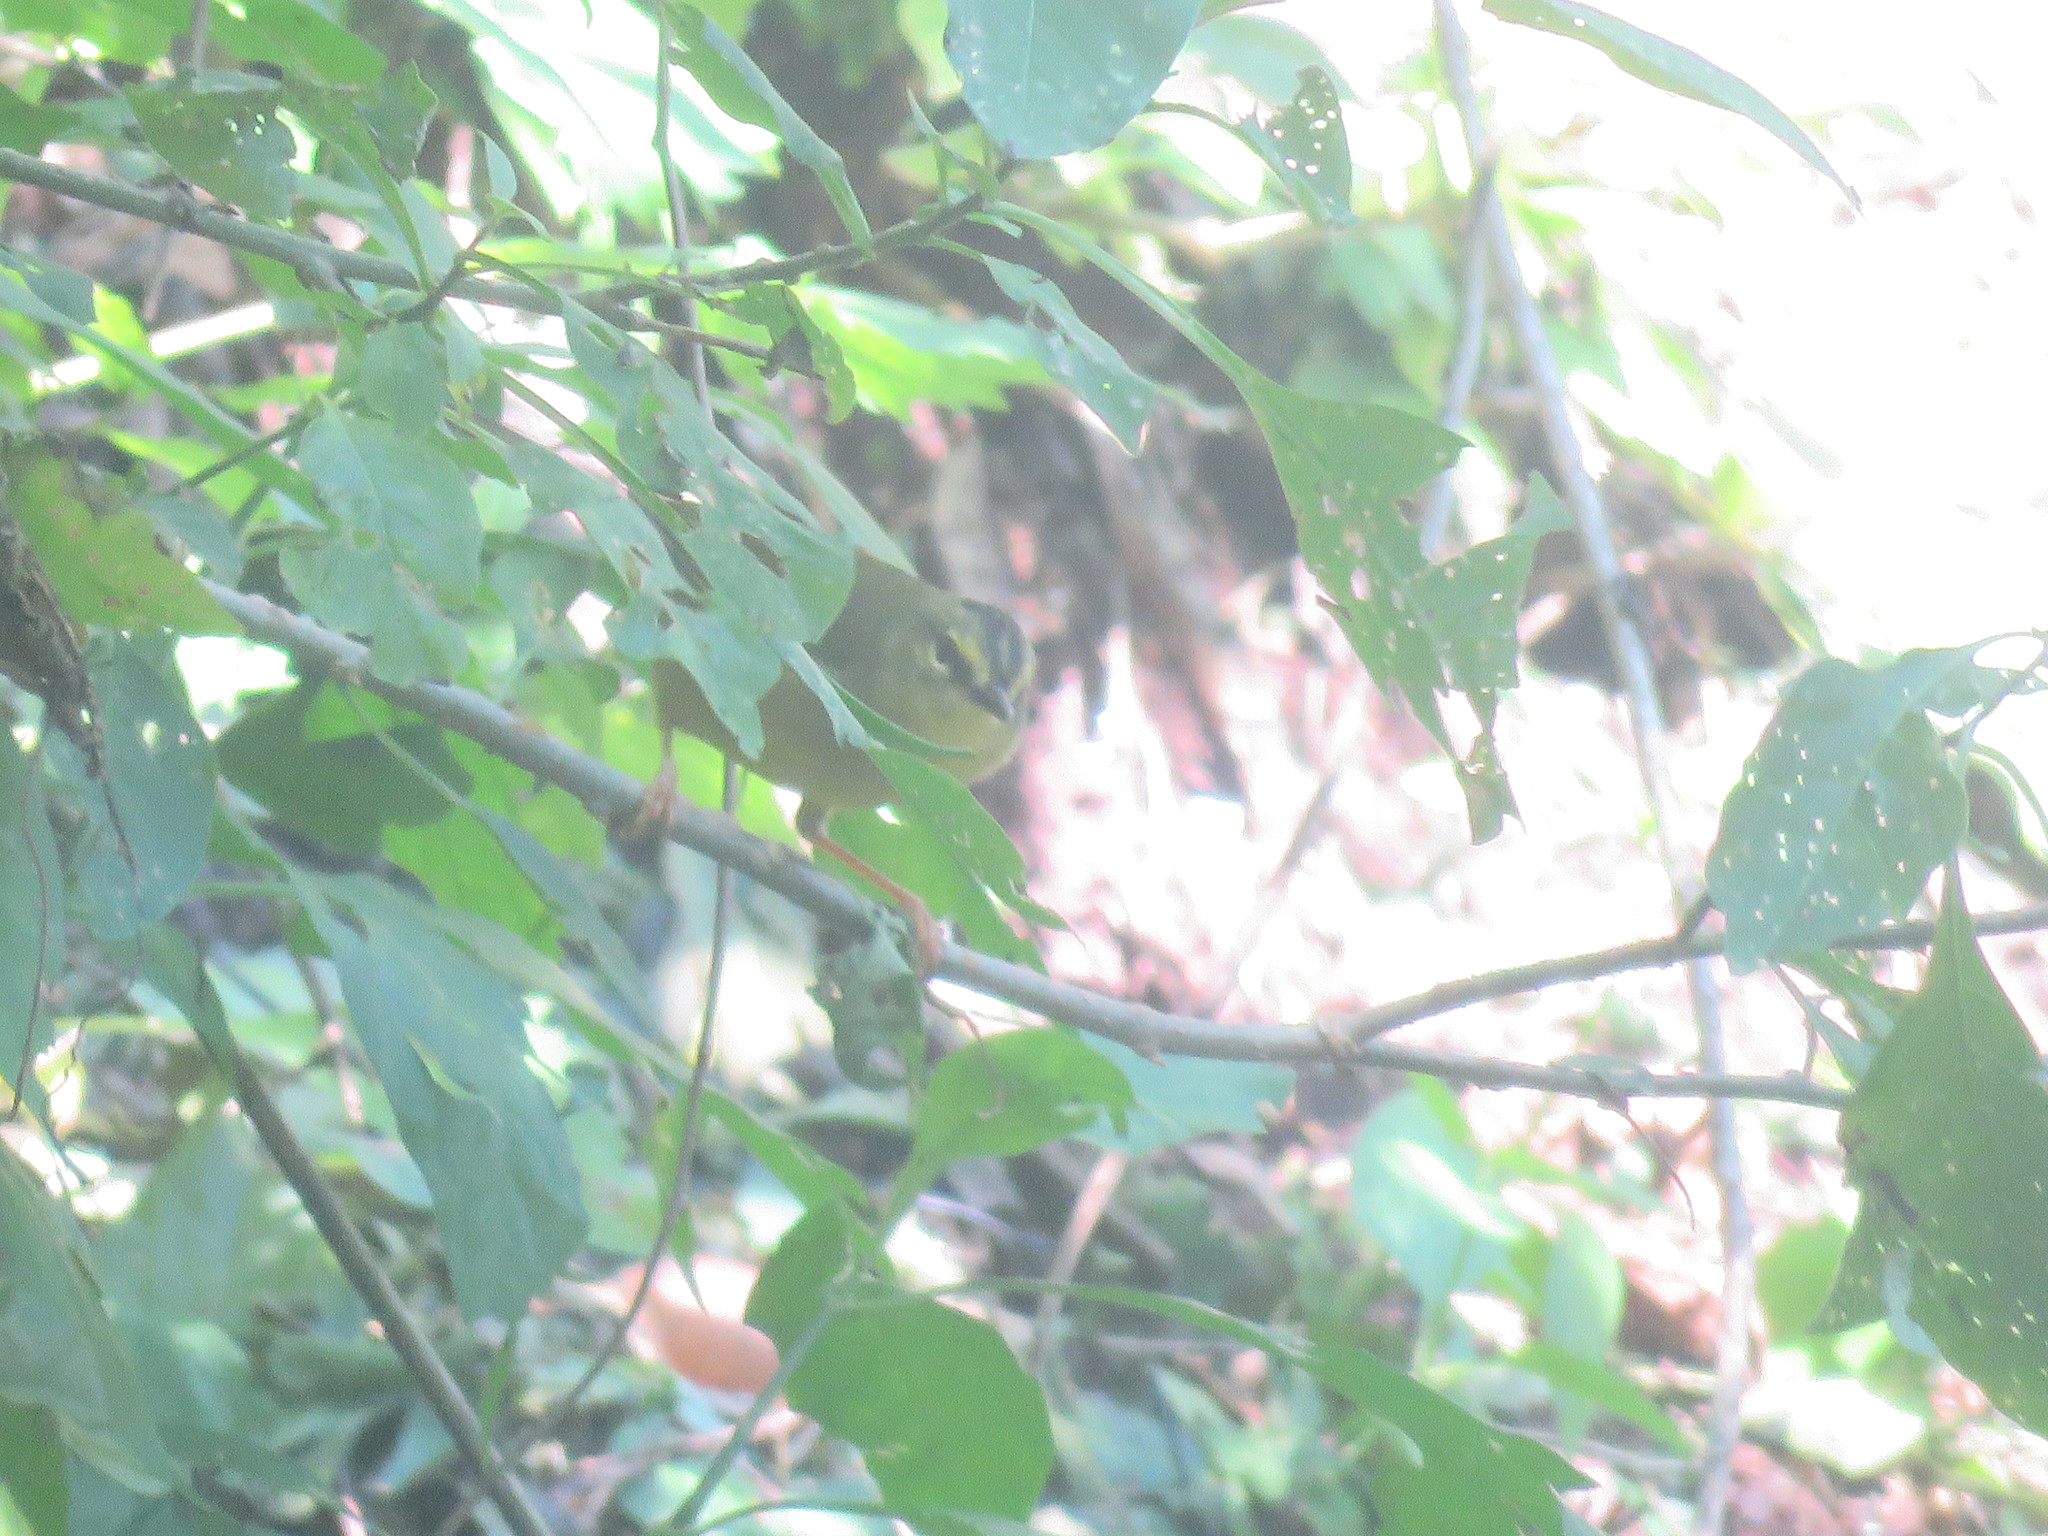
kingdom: Animalia
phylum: Chordata
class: Aves
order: Passeriformes
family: Parulidae
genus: Myiothlypis
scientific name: Myiothlypis bivittata
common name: Two-banded warbler
